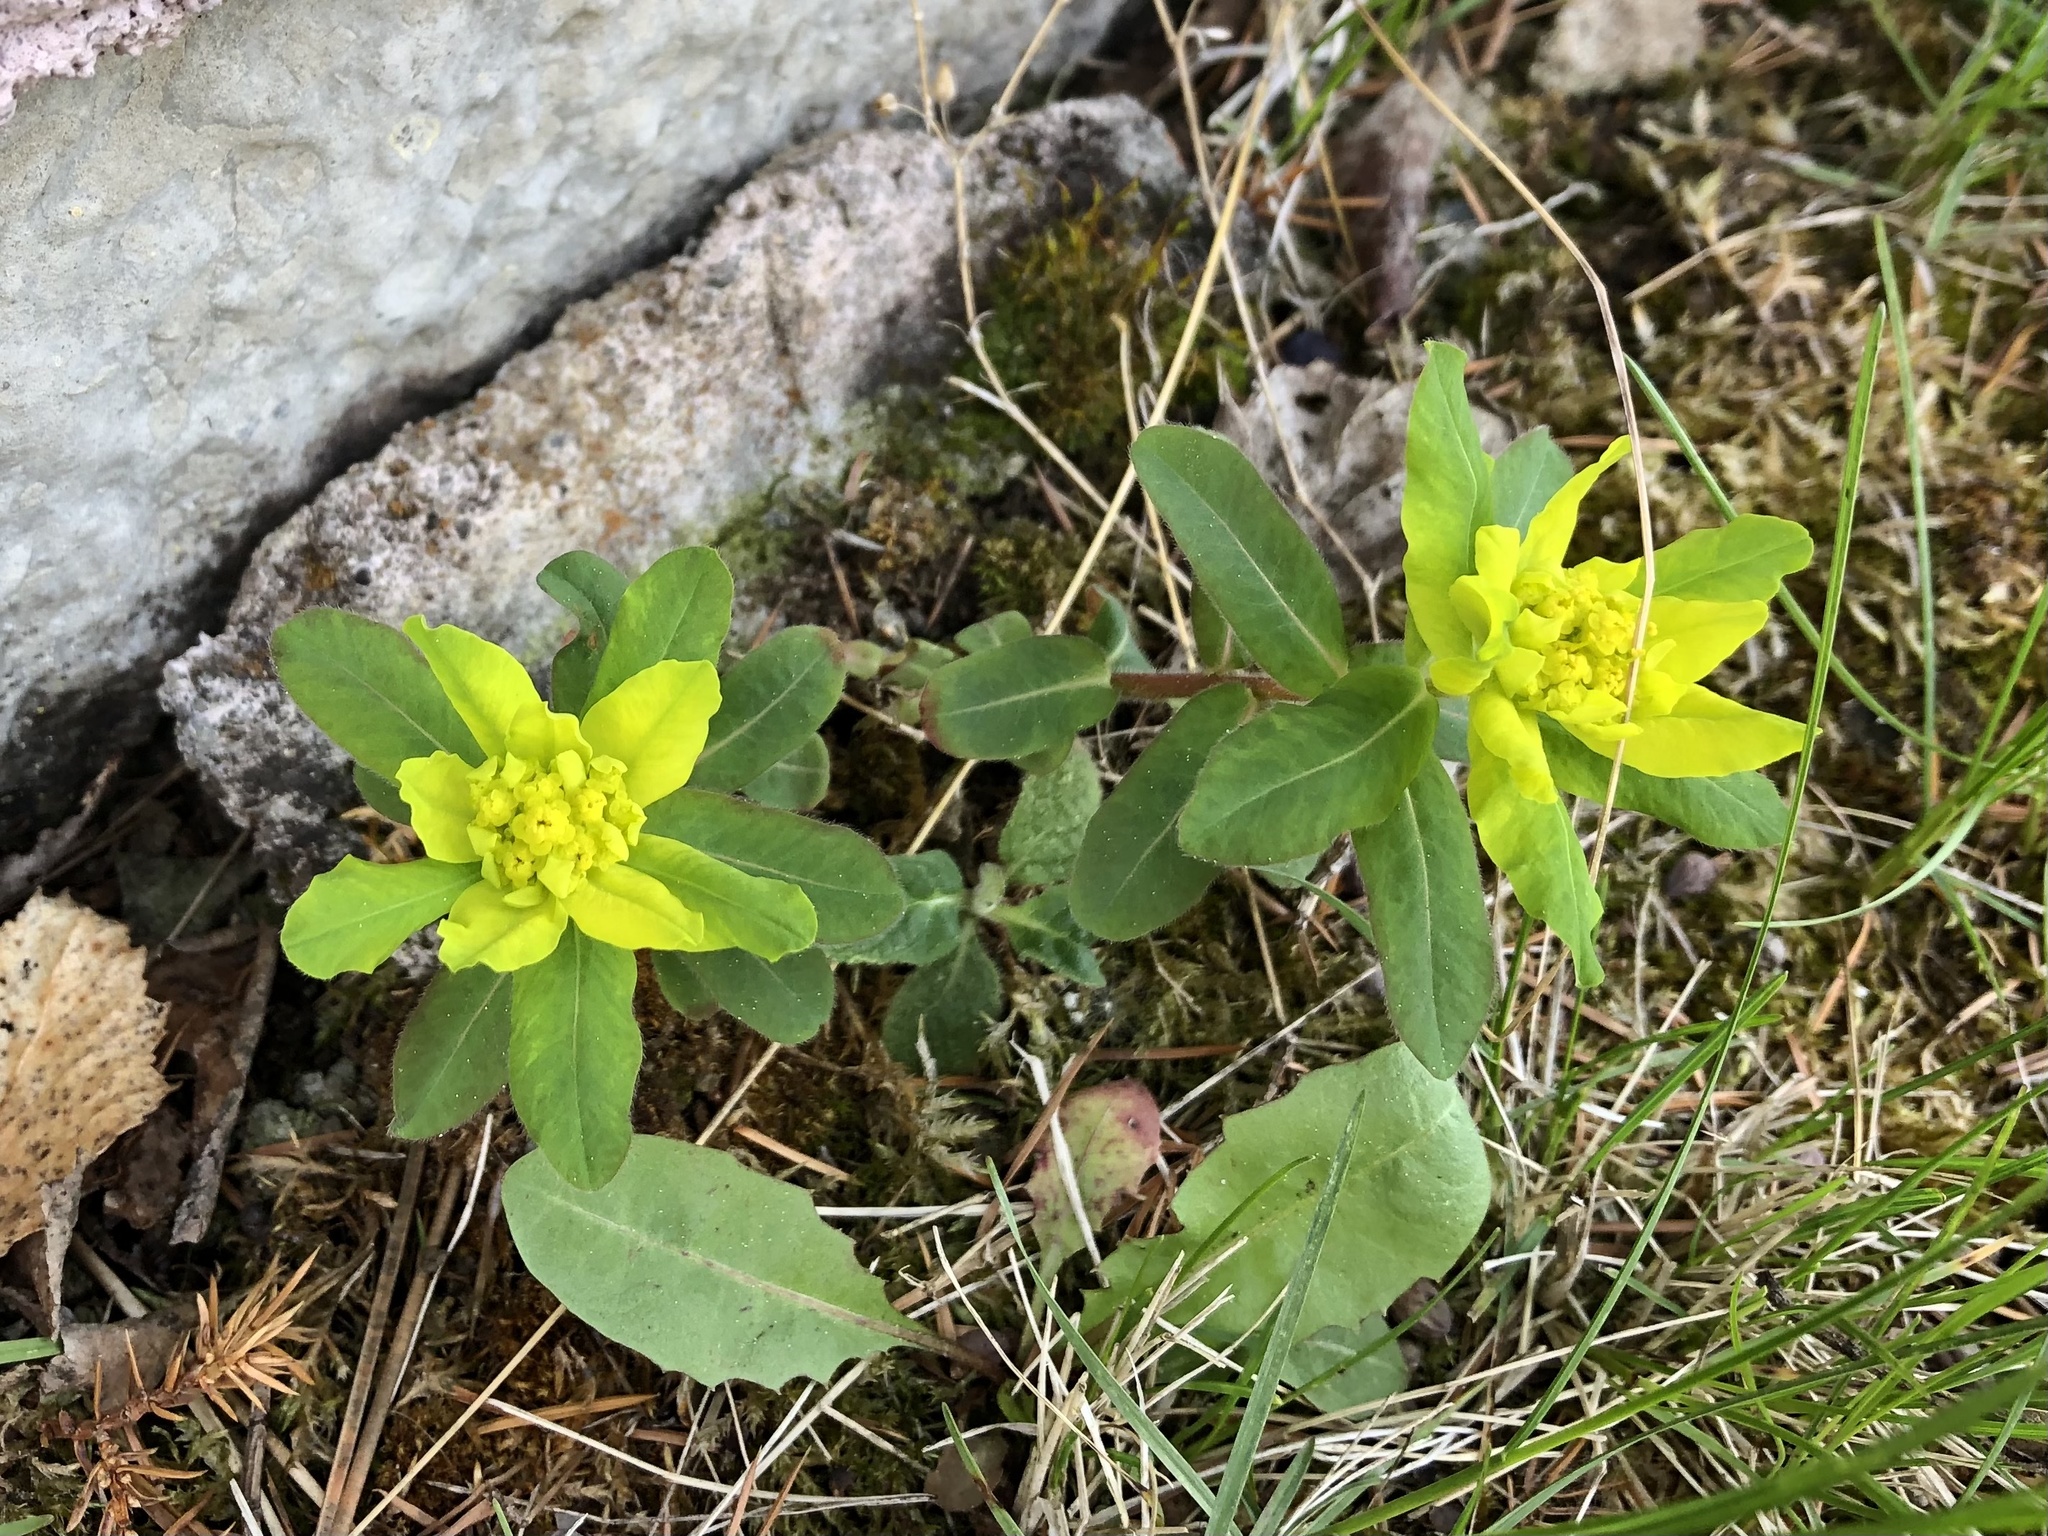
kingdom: Plantae
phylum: Tracheophyta
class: Magnoliopsida
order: Malpighiales
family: Euphorbiaceae
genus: Euphorbia
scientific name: Euphorbia epithymoides
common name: Cushion spurge
